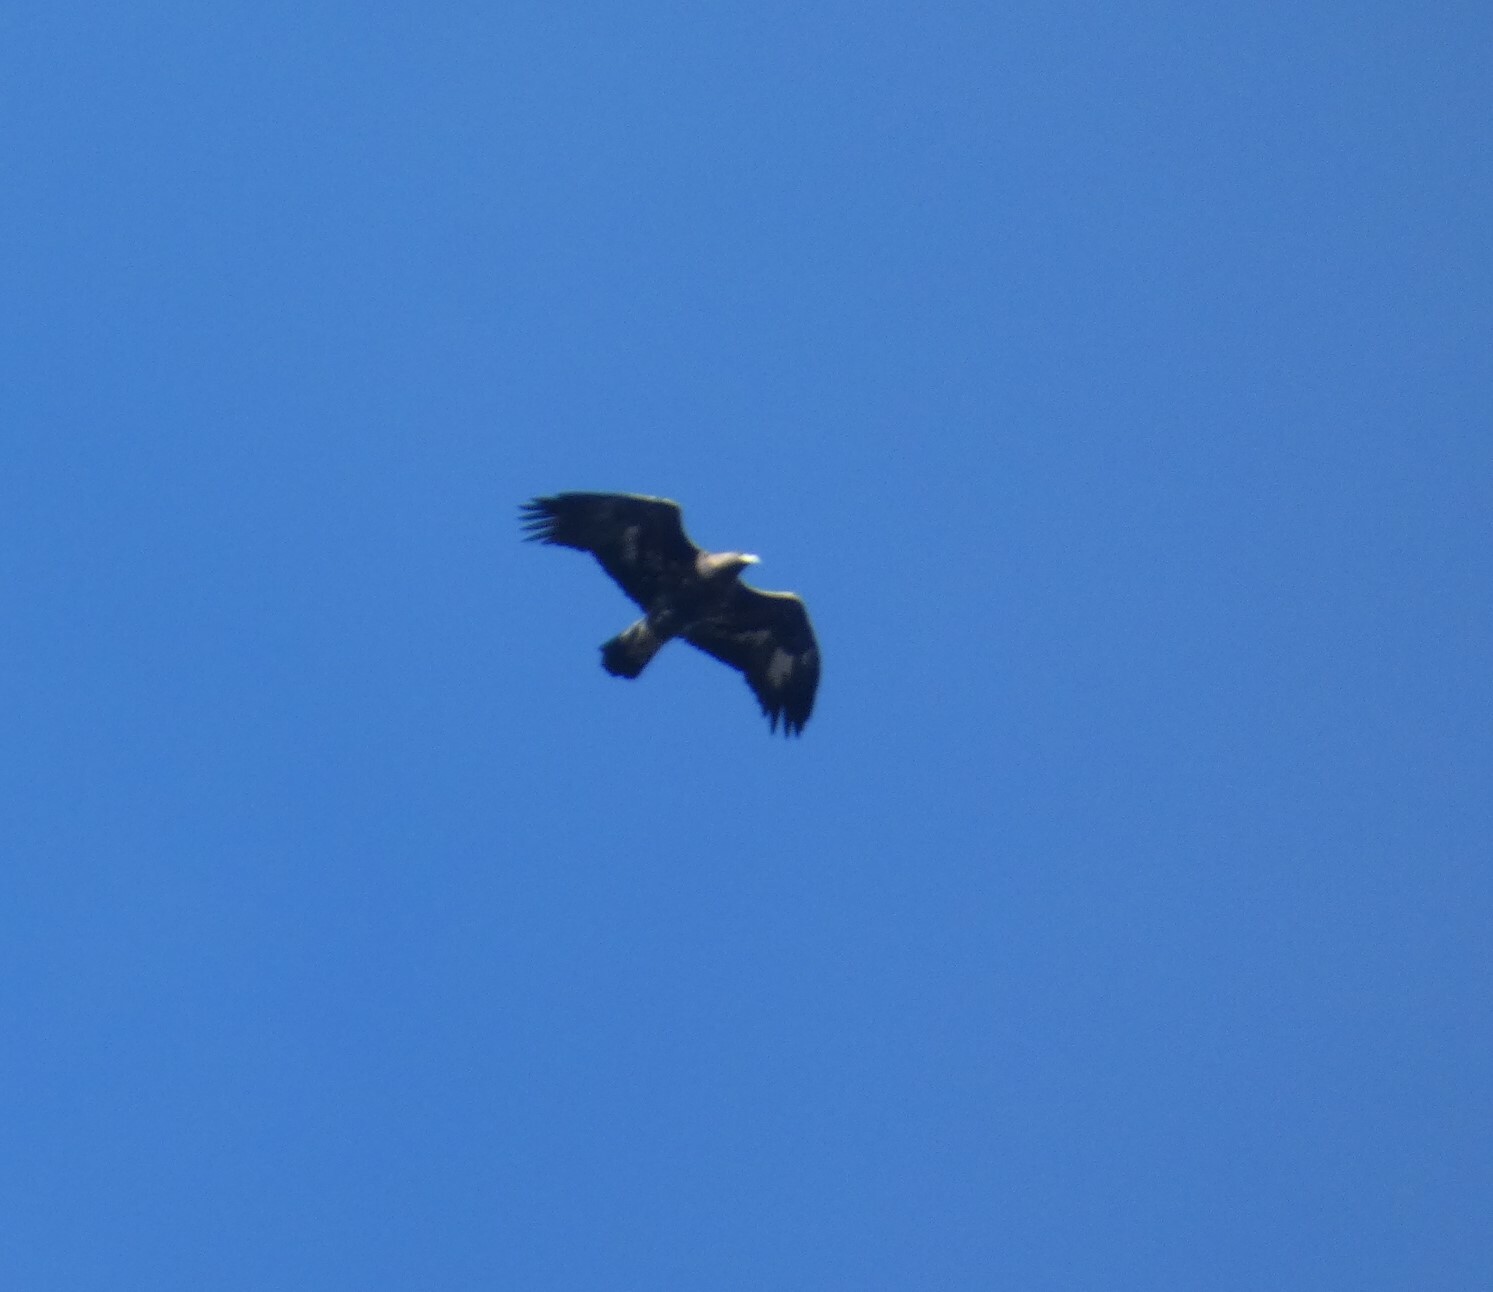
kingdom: Animalia
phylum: Chordata
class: Aves
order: Accipitriformes
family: Accipitridae
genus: Aquila
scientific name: Aquila chrysaetos
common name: Golden eagle
